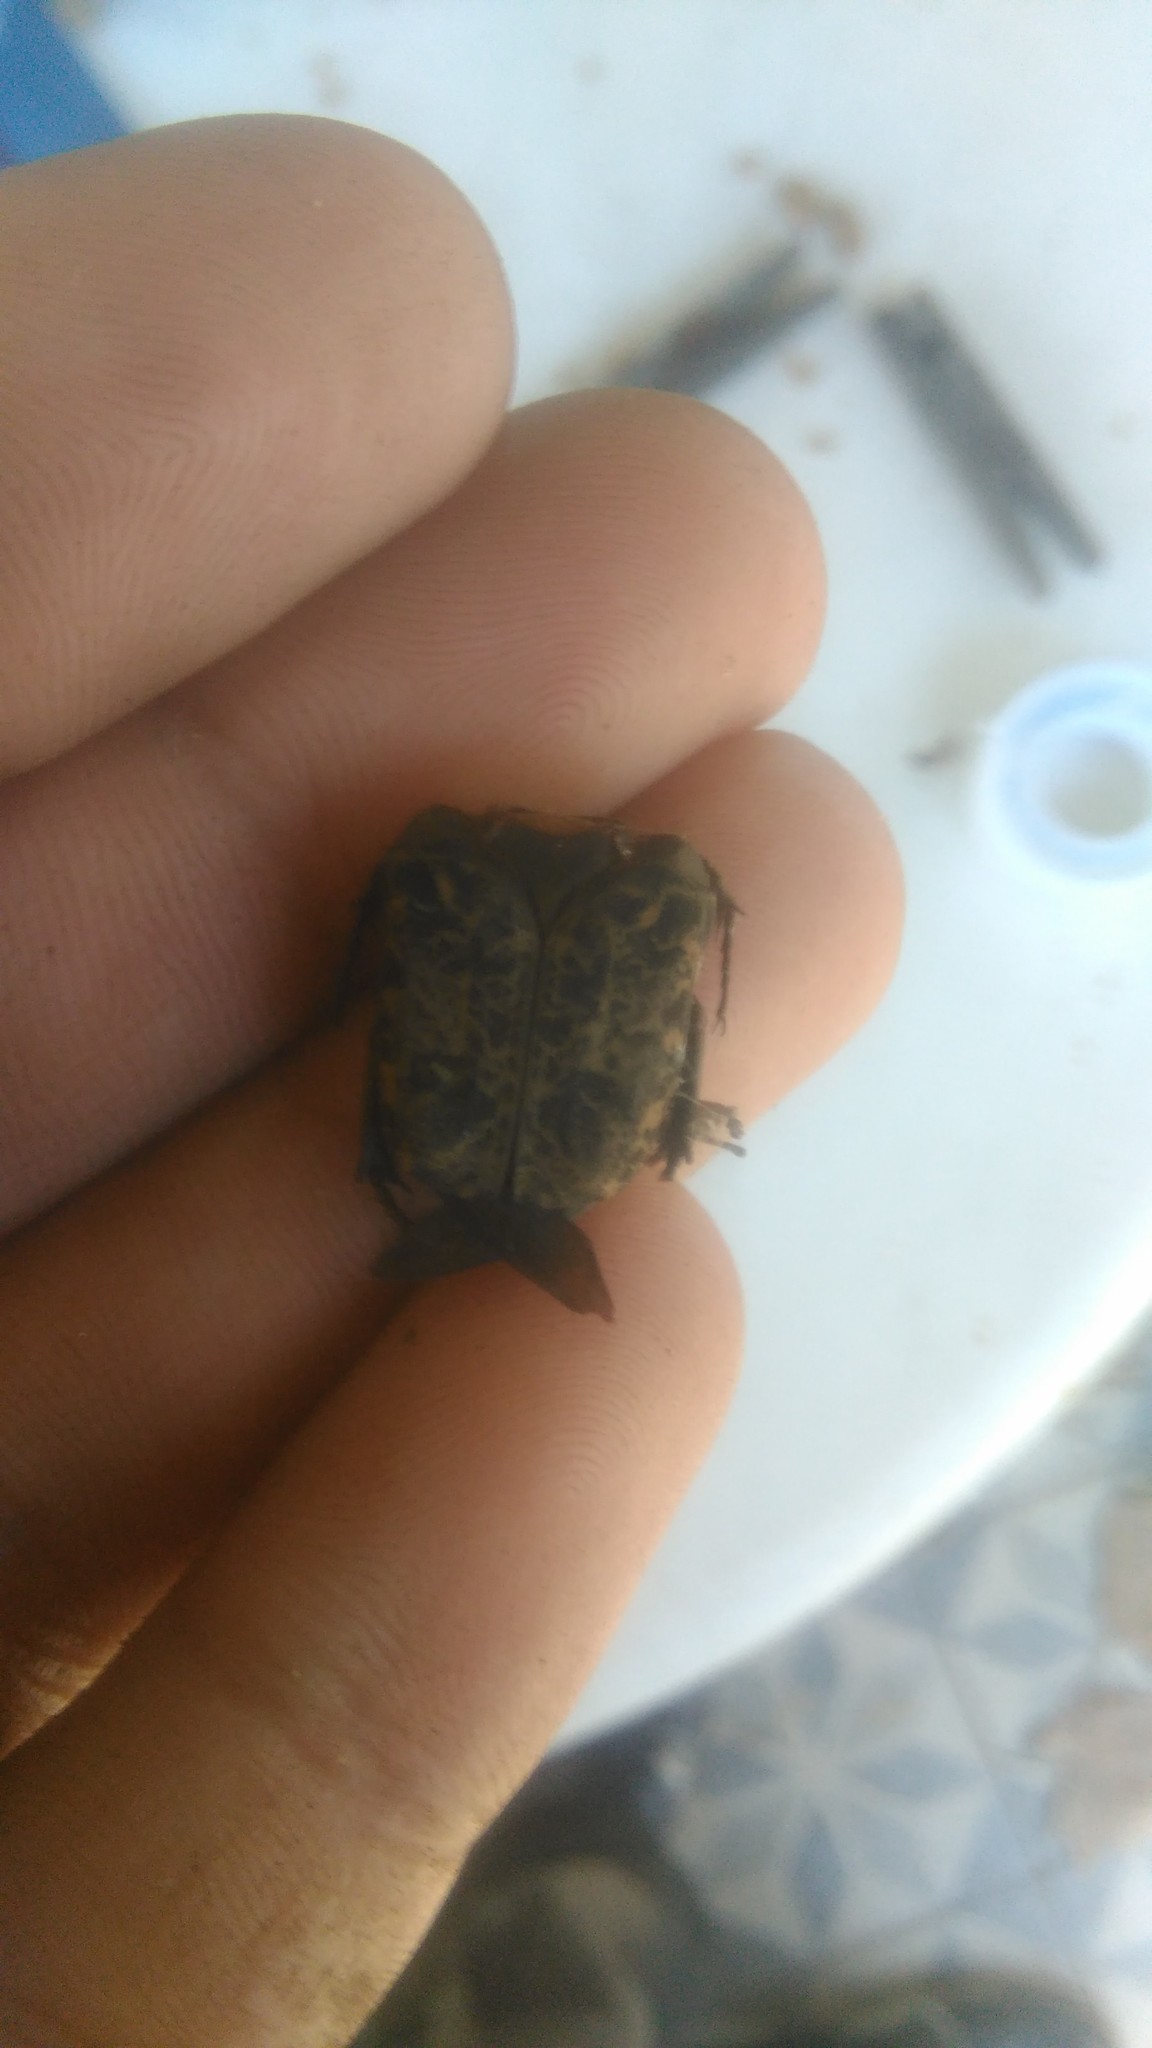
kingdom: Animalia
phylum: Arthropoda
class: Insecta
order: Coleoptera
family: Scarabaeidae
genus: Gymnetis
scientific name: Gymnetis chalcipes
